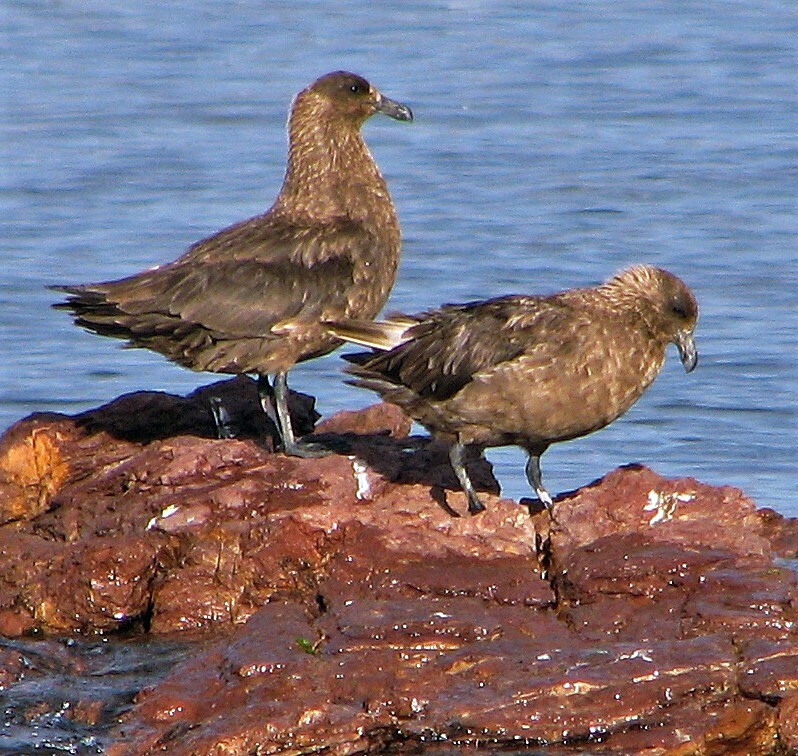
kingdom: Animalia
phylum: Chordata
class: Aves
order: Charadriiformes
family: Stercorariidae
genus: Stercorarius
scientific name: Stercorarius antarcticus
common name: Brown skua
